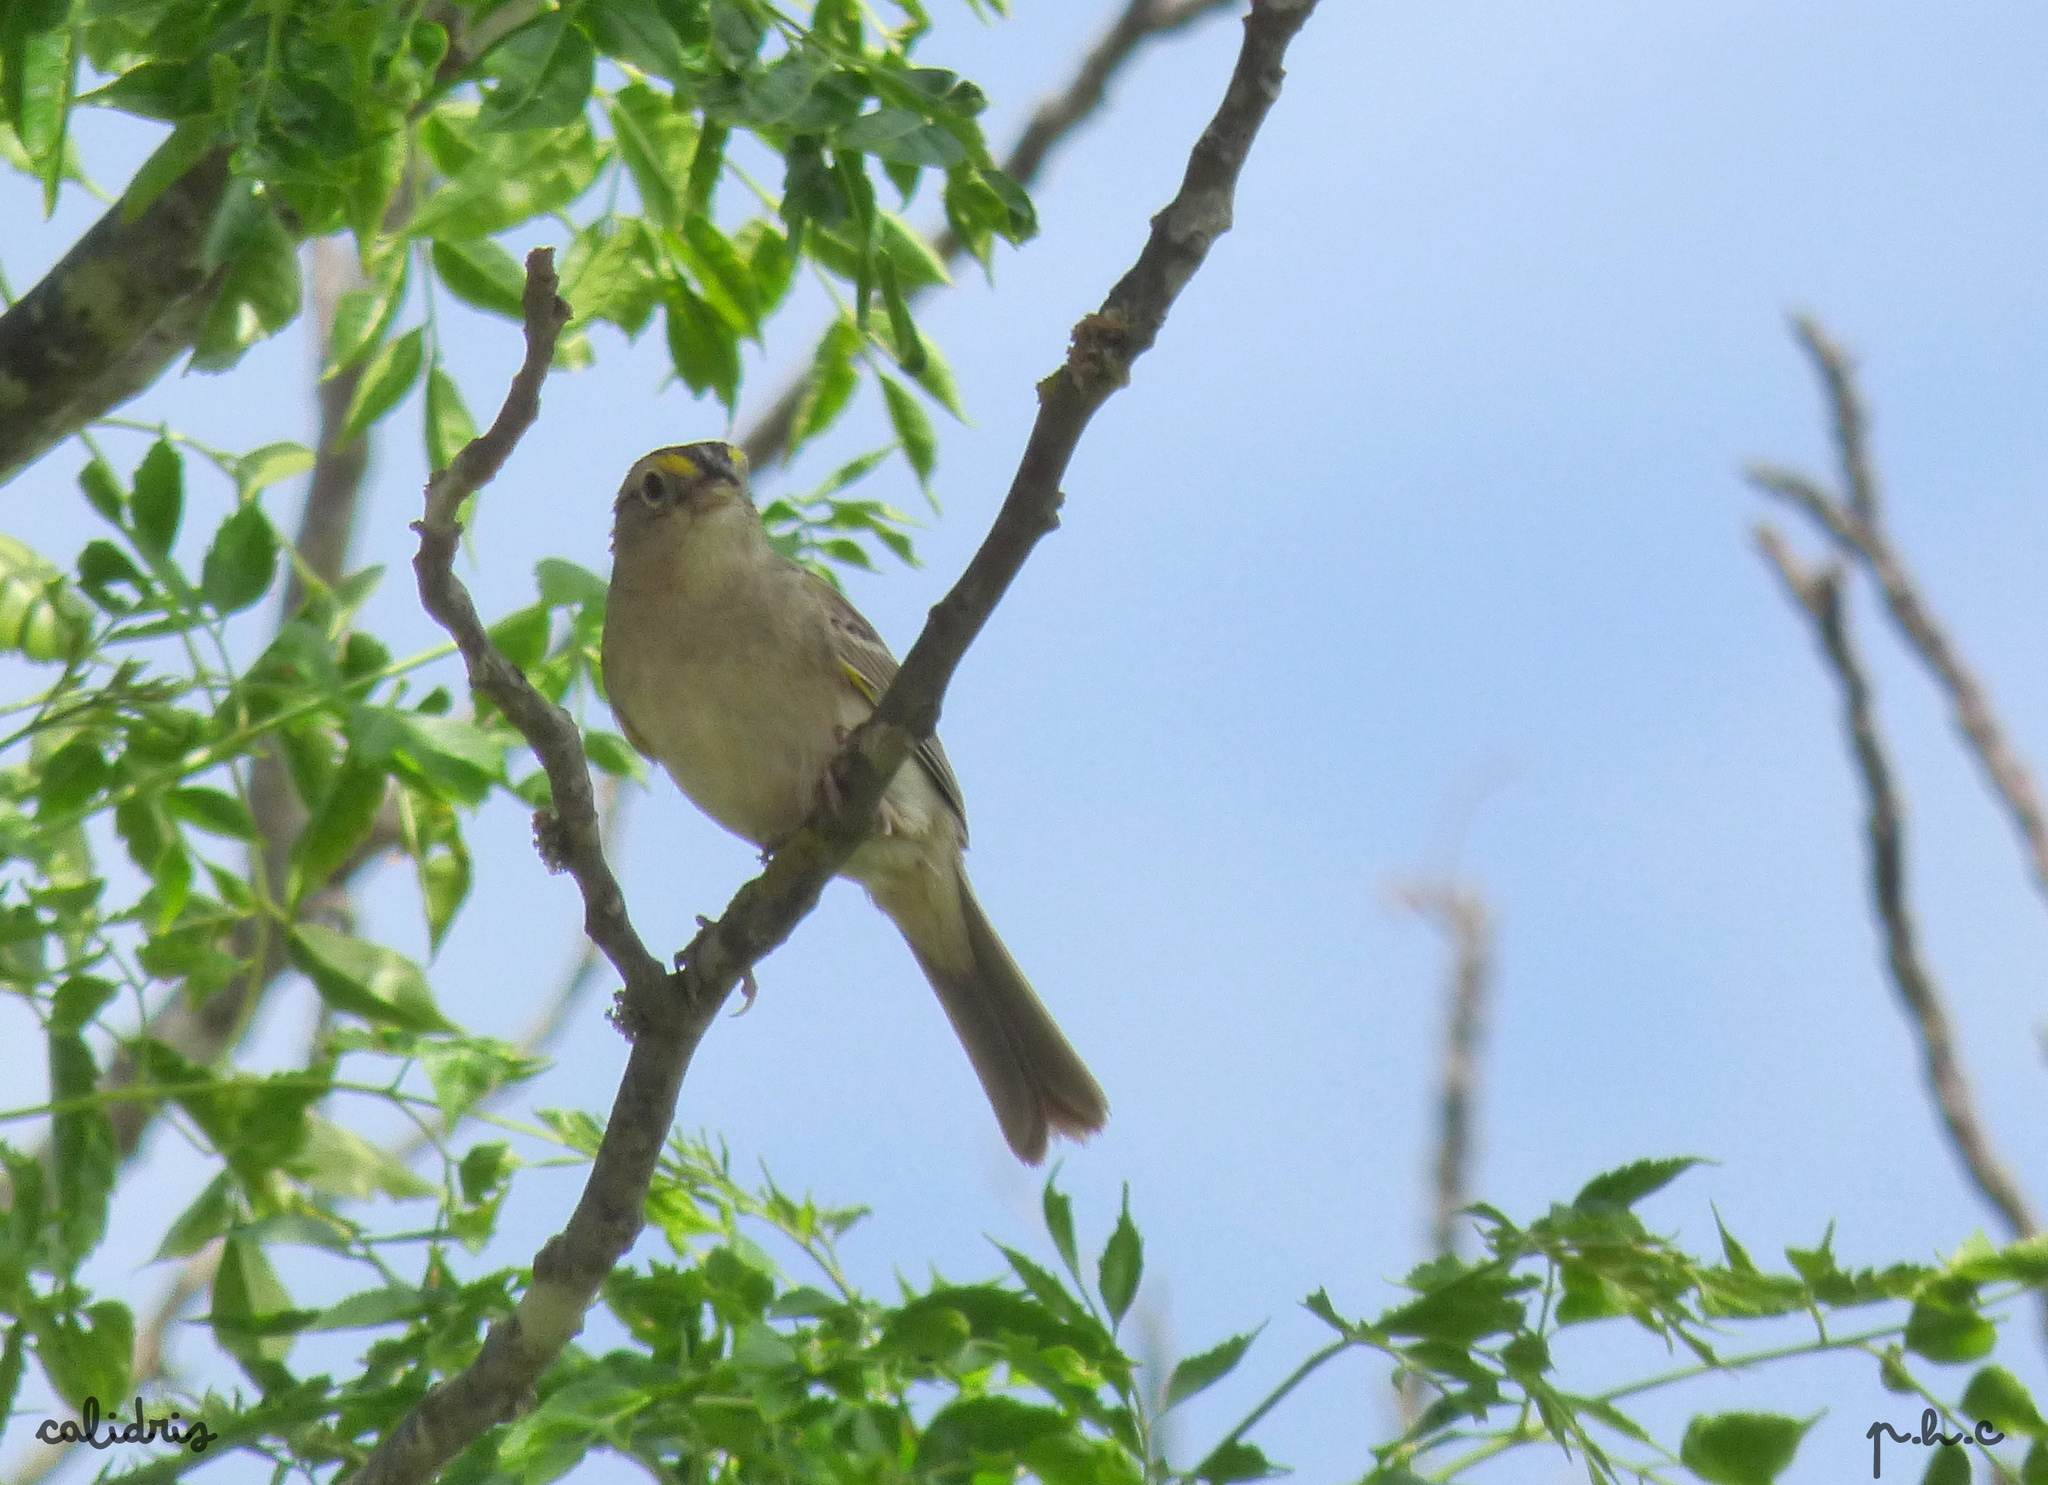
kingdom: Animalia
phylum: Chordata
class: Aves
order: Passeriformes
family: Passerellidae
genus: Ammodramus
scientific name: Ammodramus humeralis
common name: Grassland sparrow
